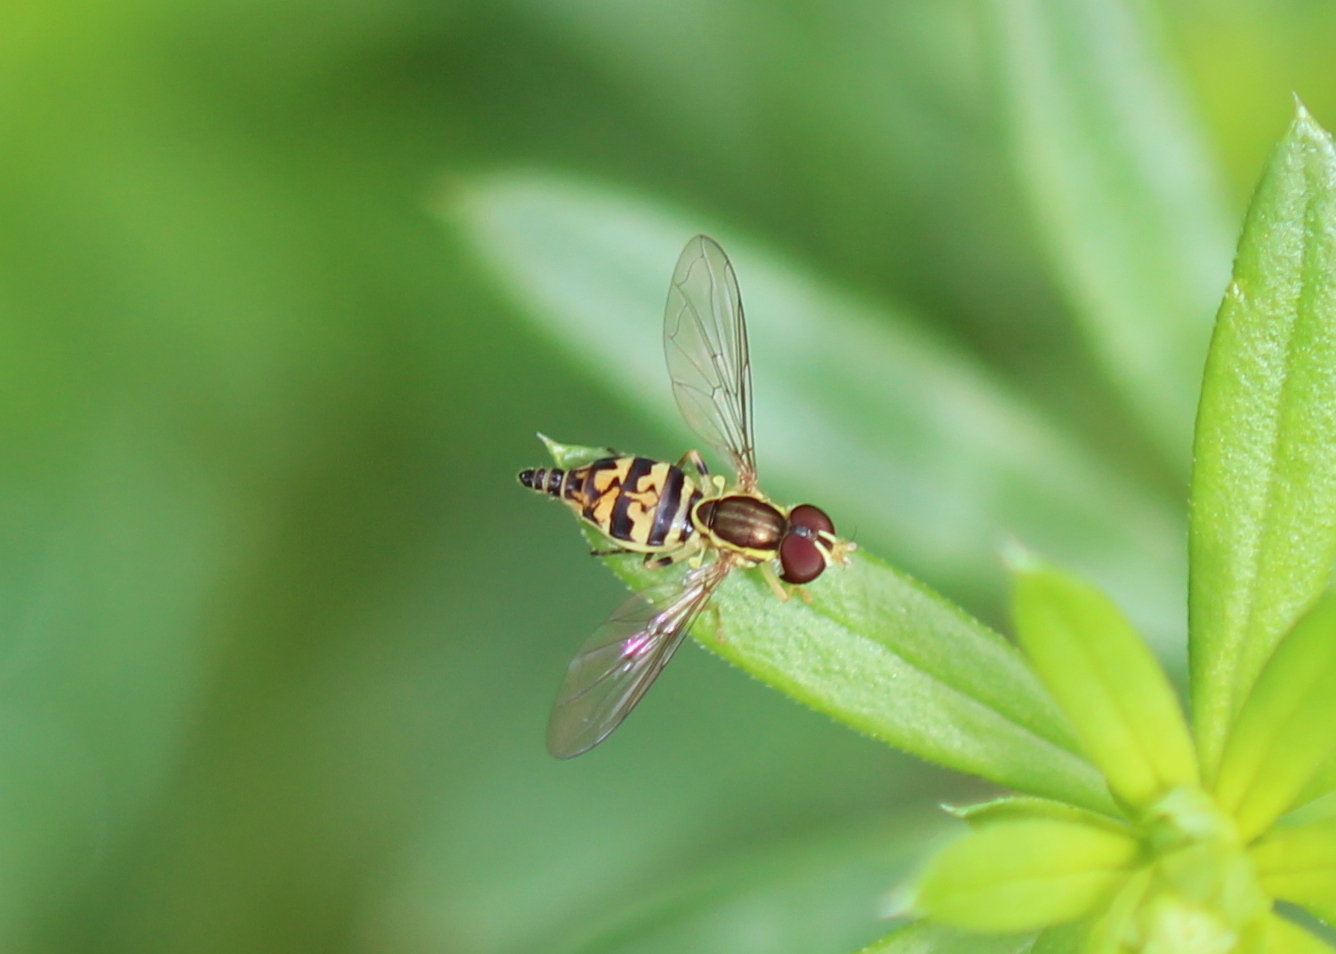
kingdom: Animalia
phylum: Arthropoda
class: Insecta
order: Diptera
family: Syrphidae
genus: Toxomerus
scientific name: Toxomerus geminatus
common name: Eastern calligrapher
